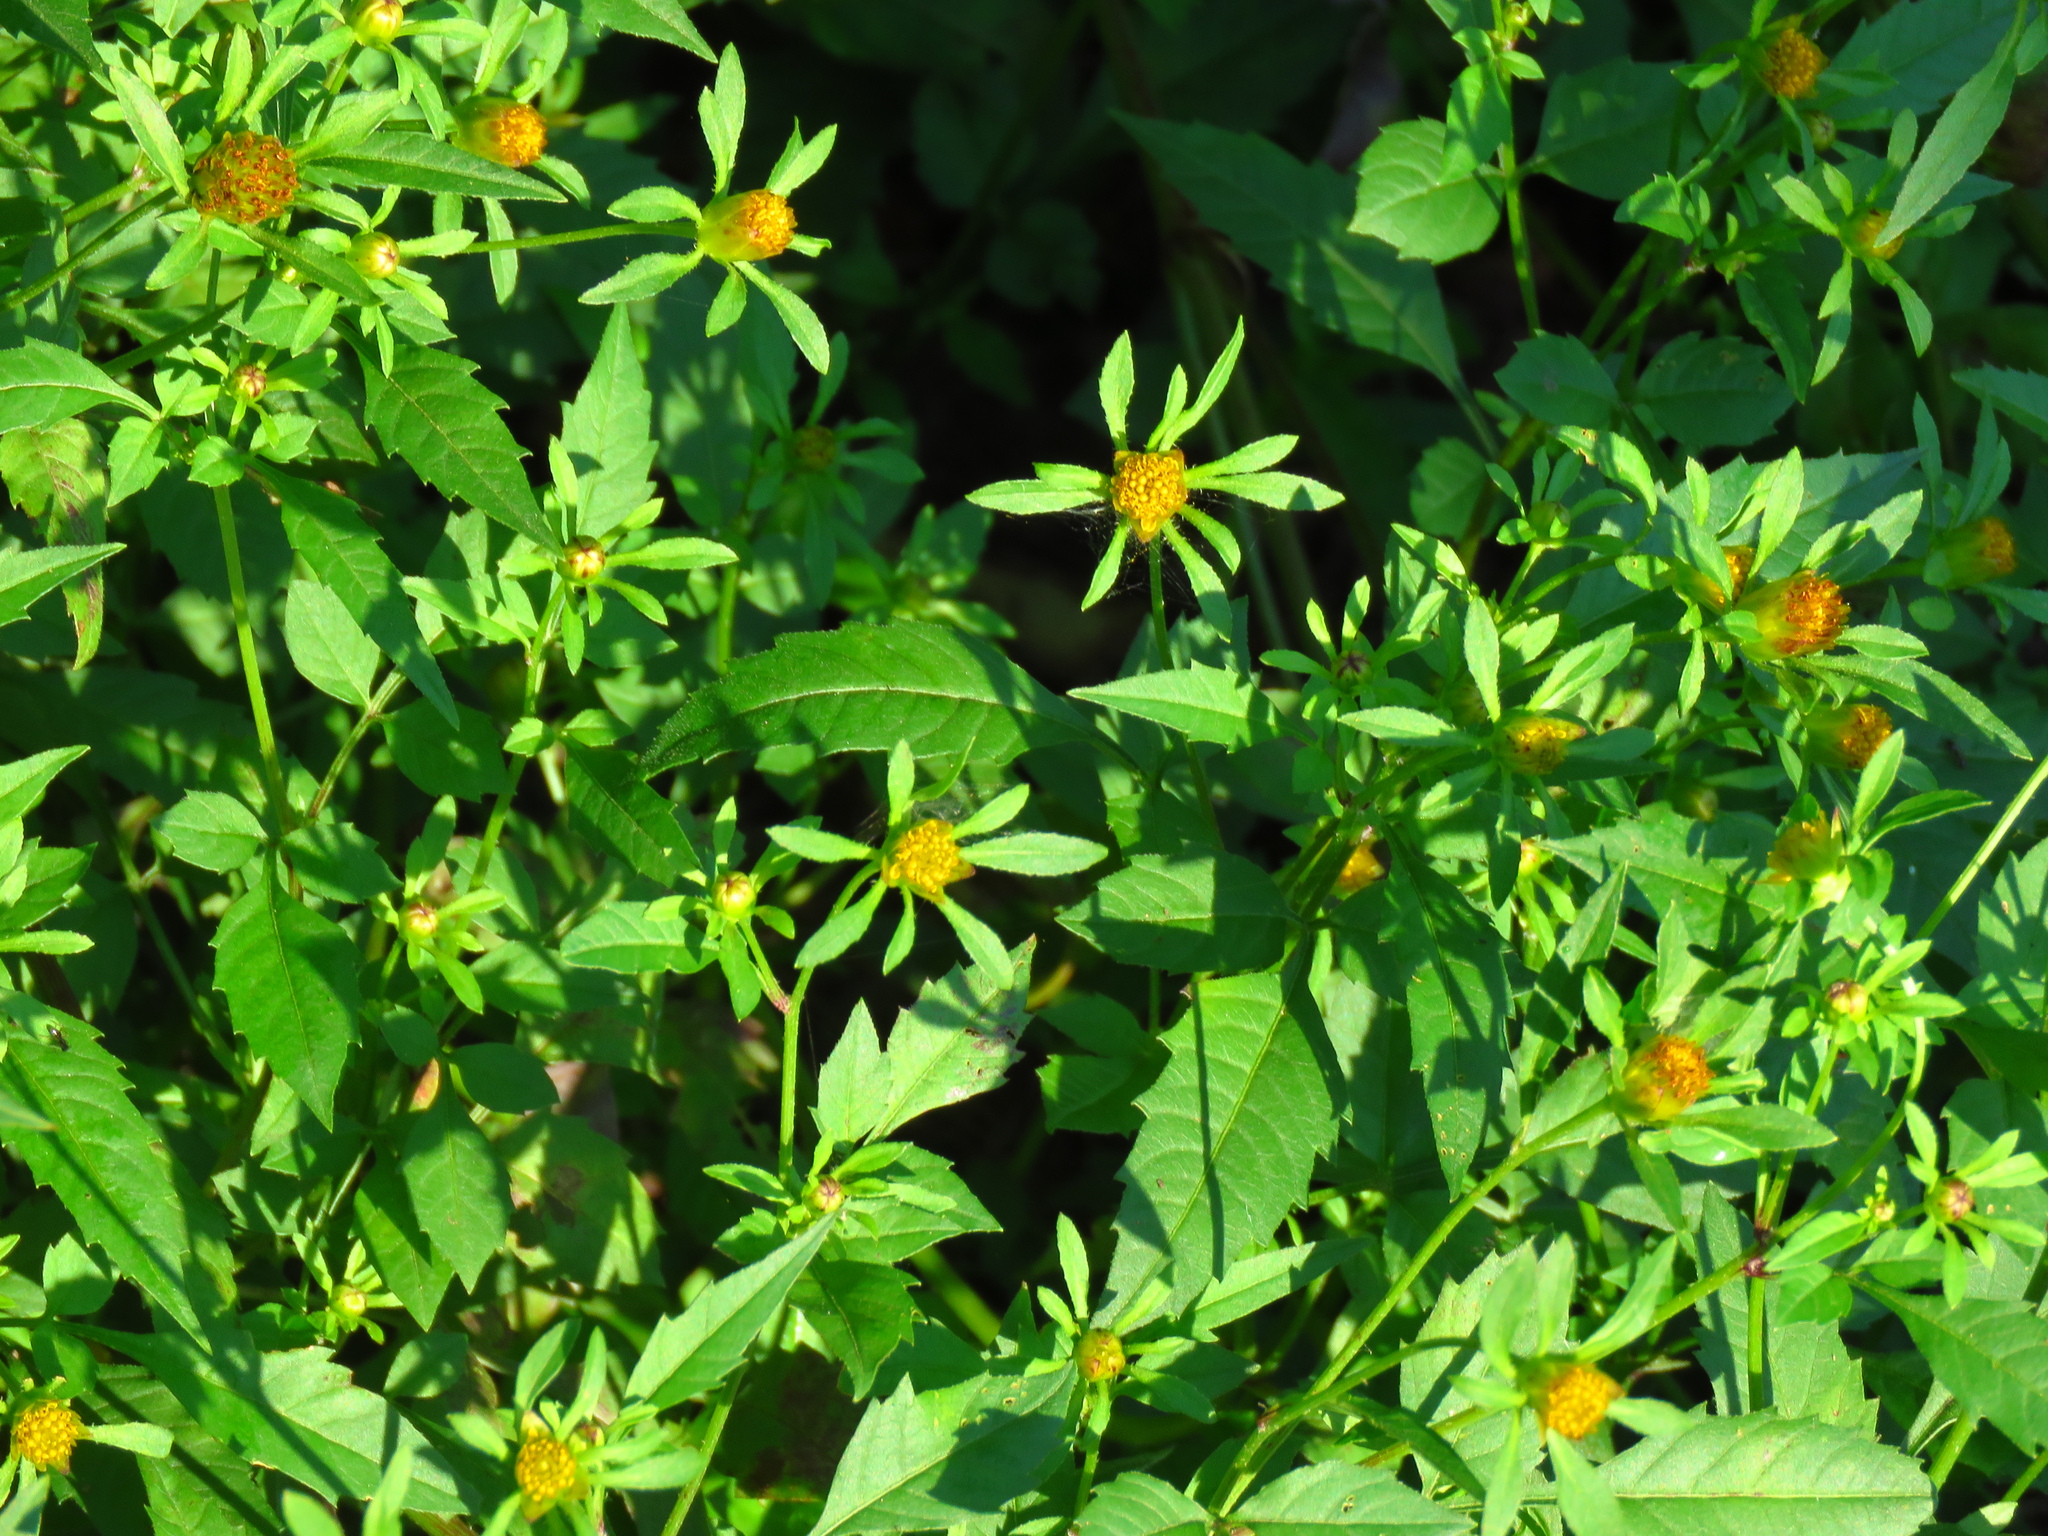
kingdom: Plantae
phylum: Tracheophyta
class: Magnoliopsida
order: Asterales
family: Asteraceae
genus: Bidens
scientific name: Bidens frondosa
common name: Beggarticks
